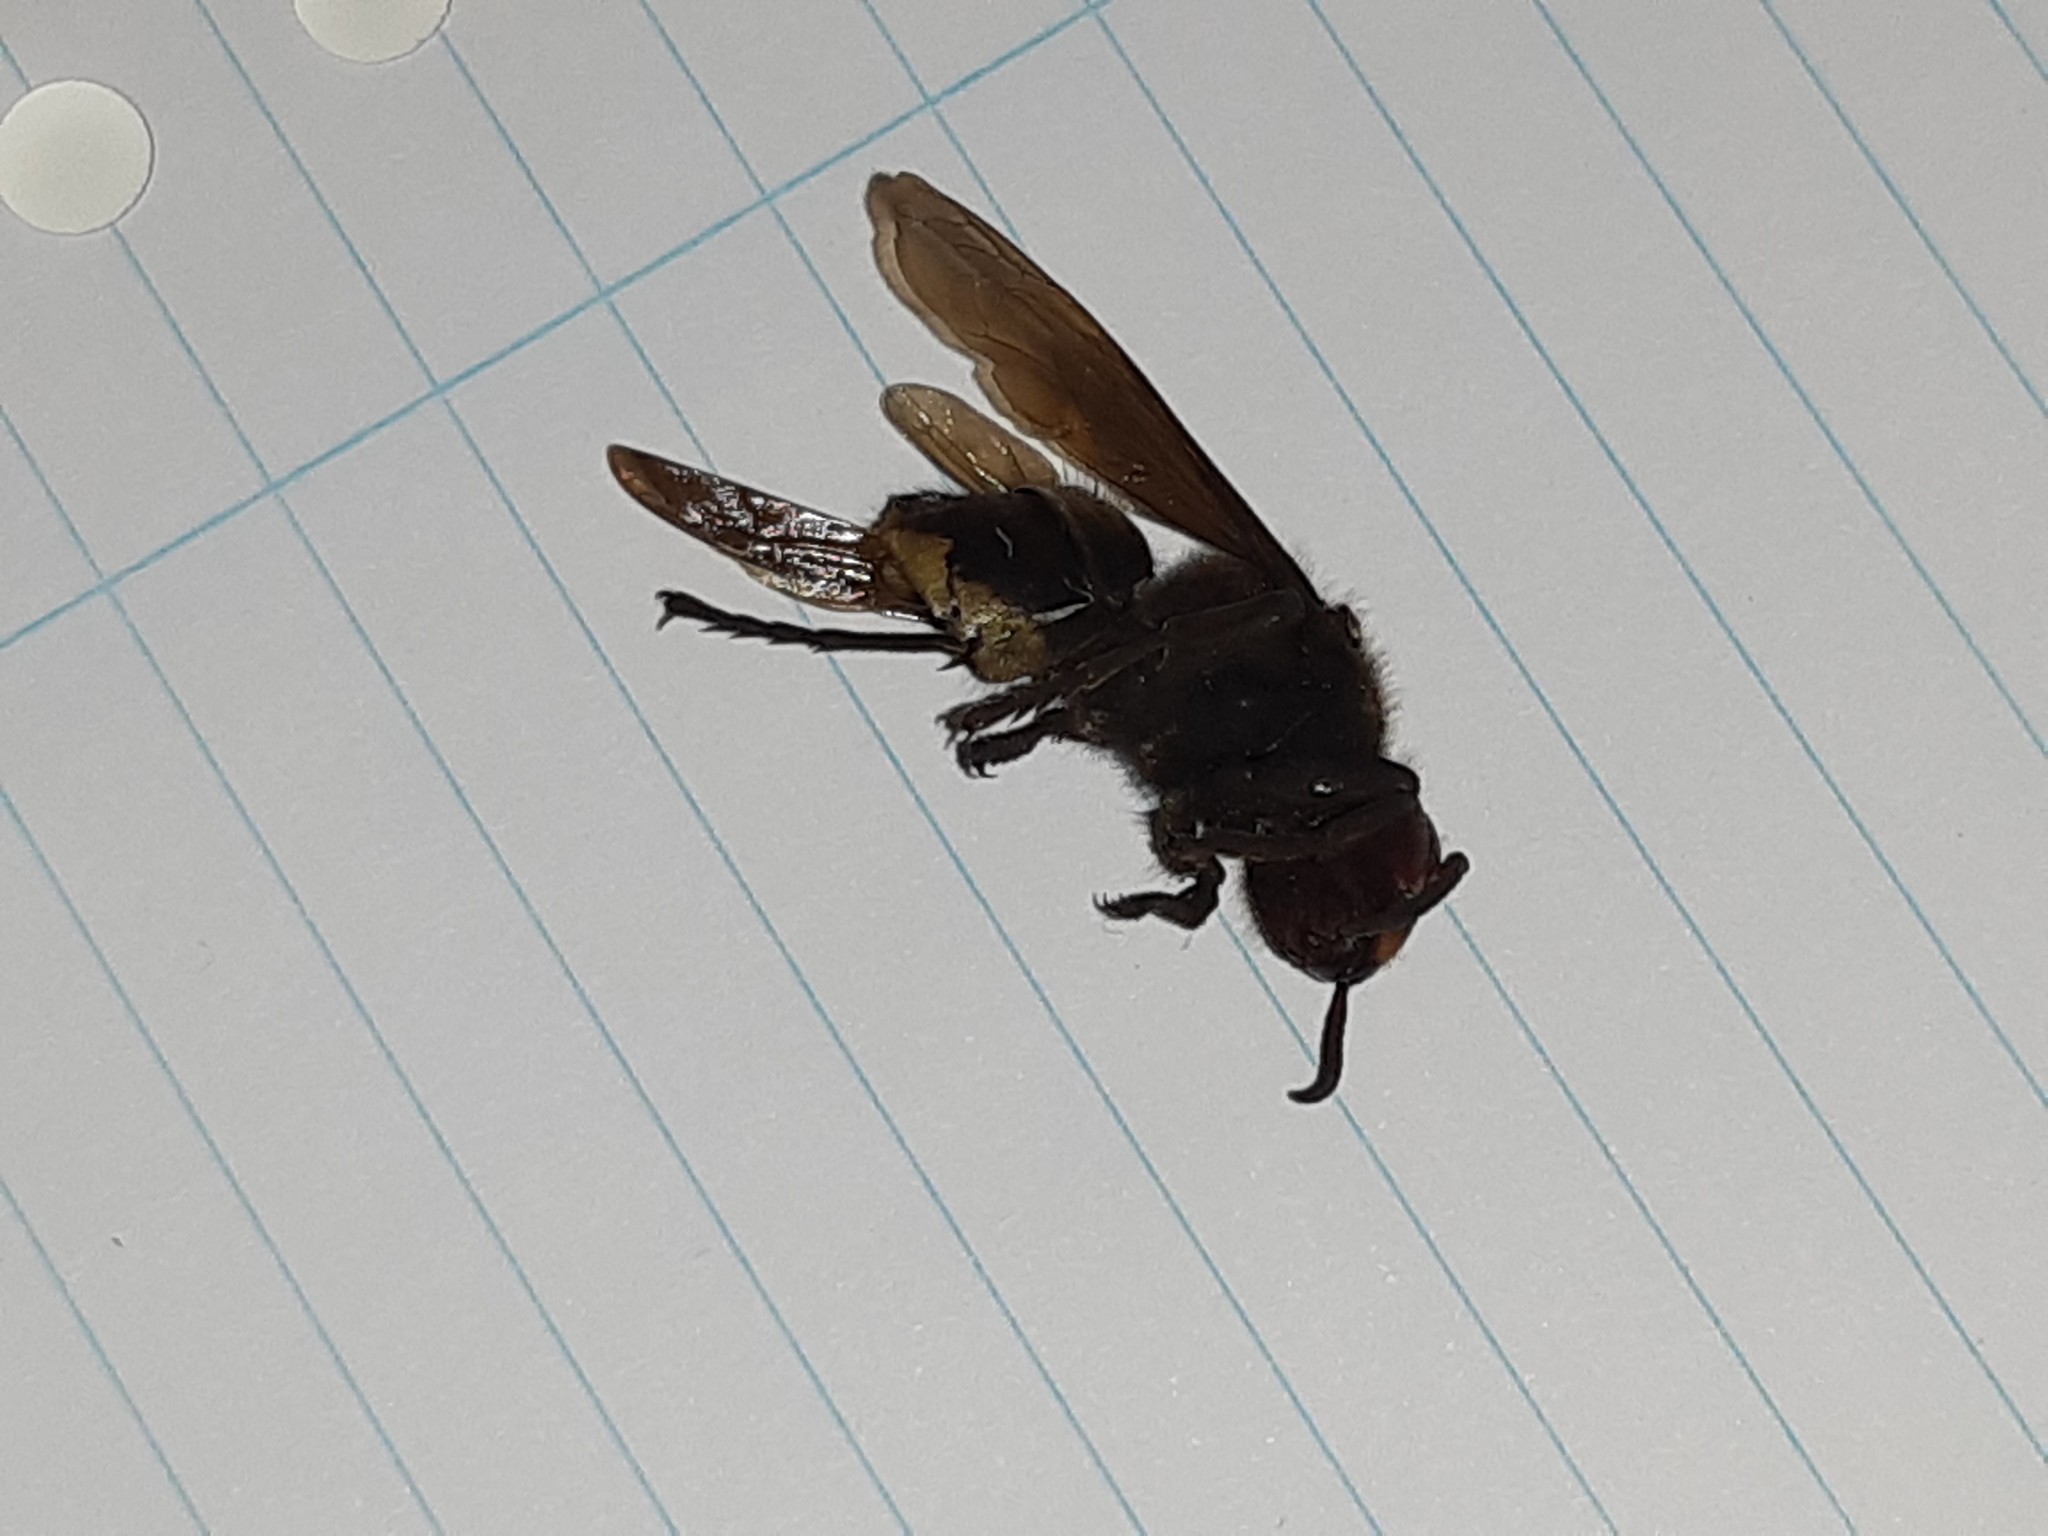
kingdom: Animalia
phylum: Arthropoda
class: Insecta
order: Hymenoptera
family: Vespidae
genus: Vespa
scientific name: Vespa crabro
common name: Hornet
